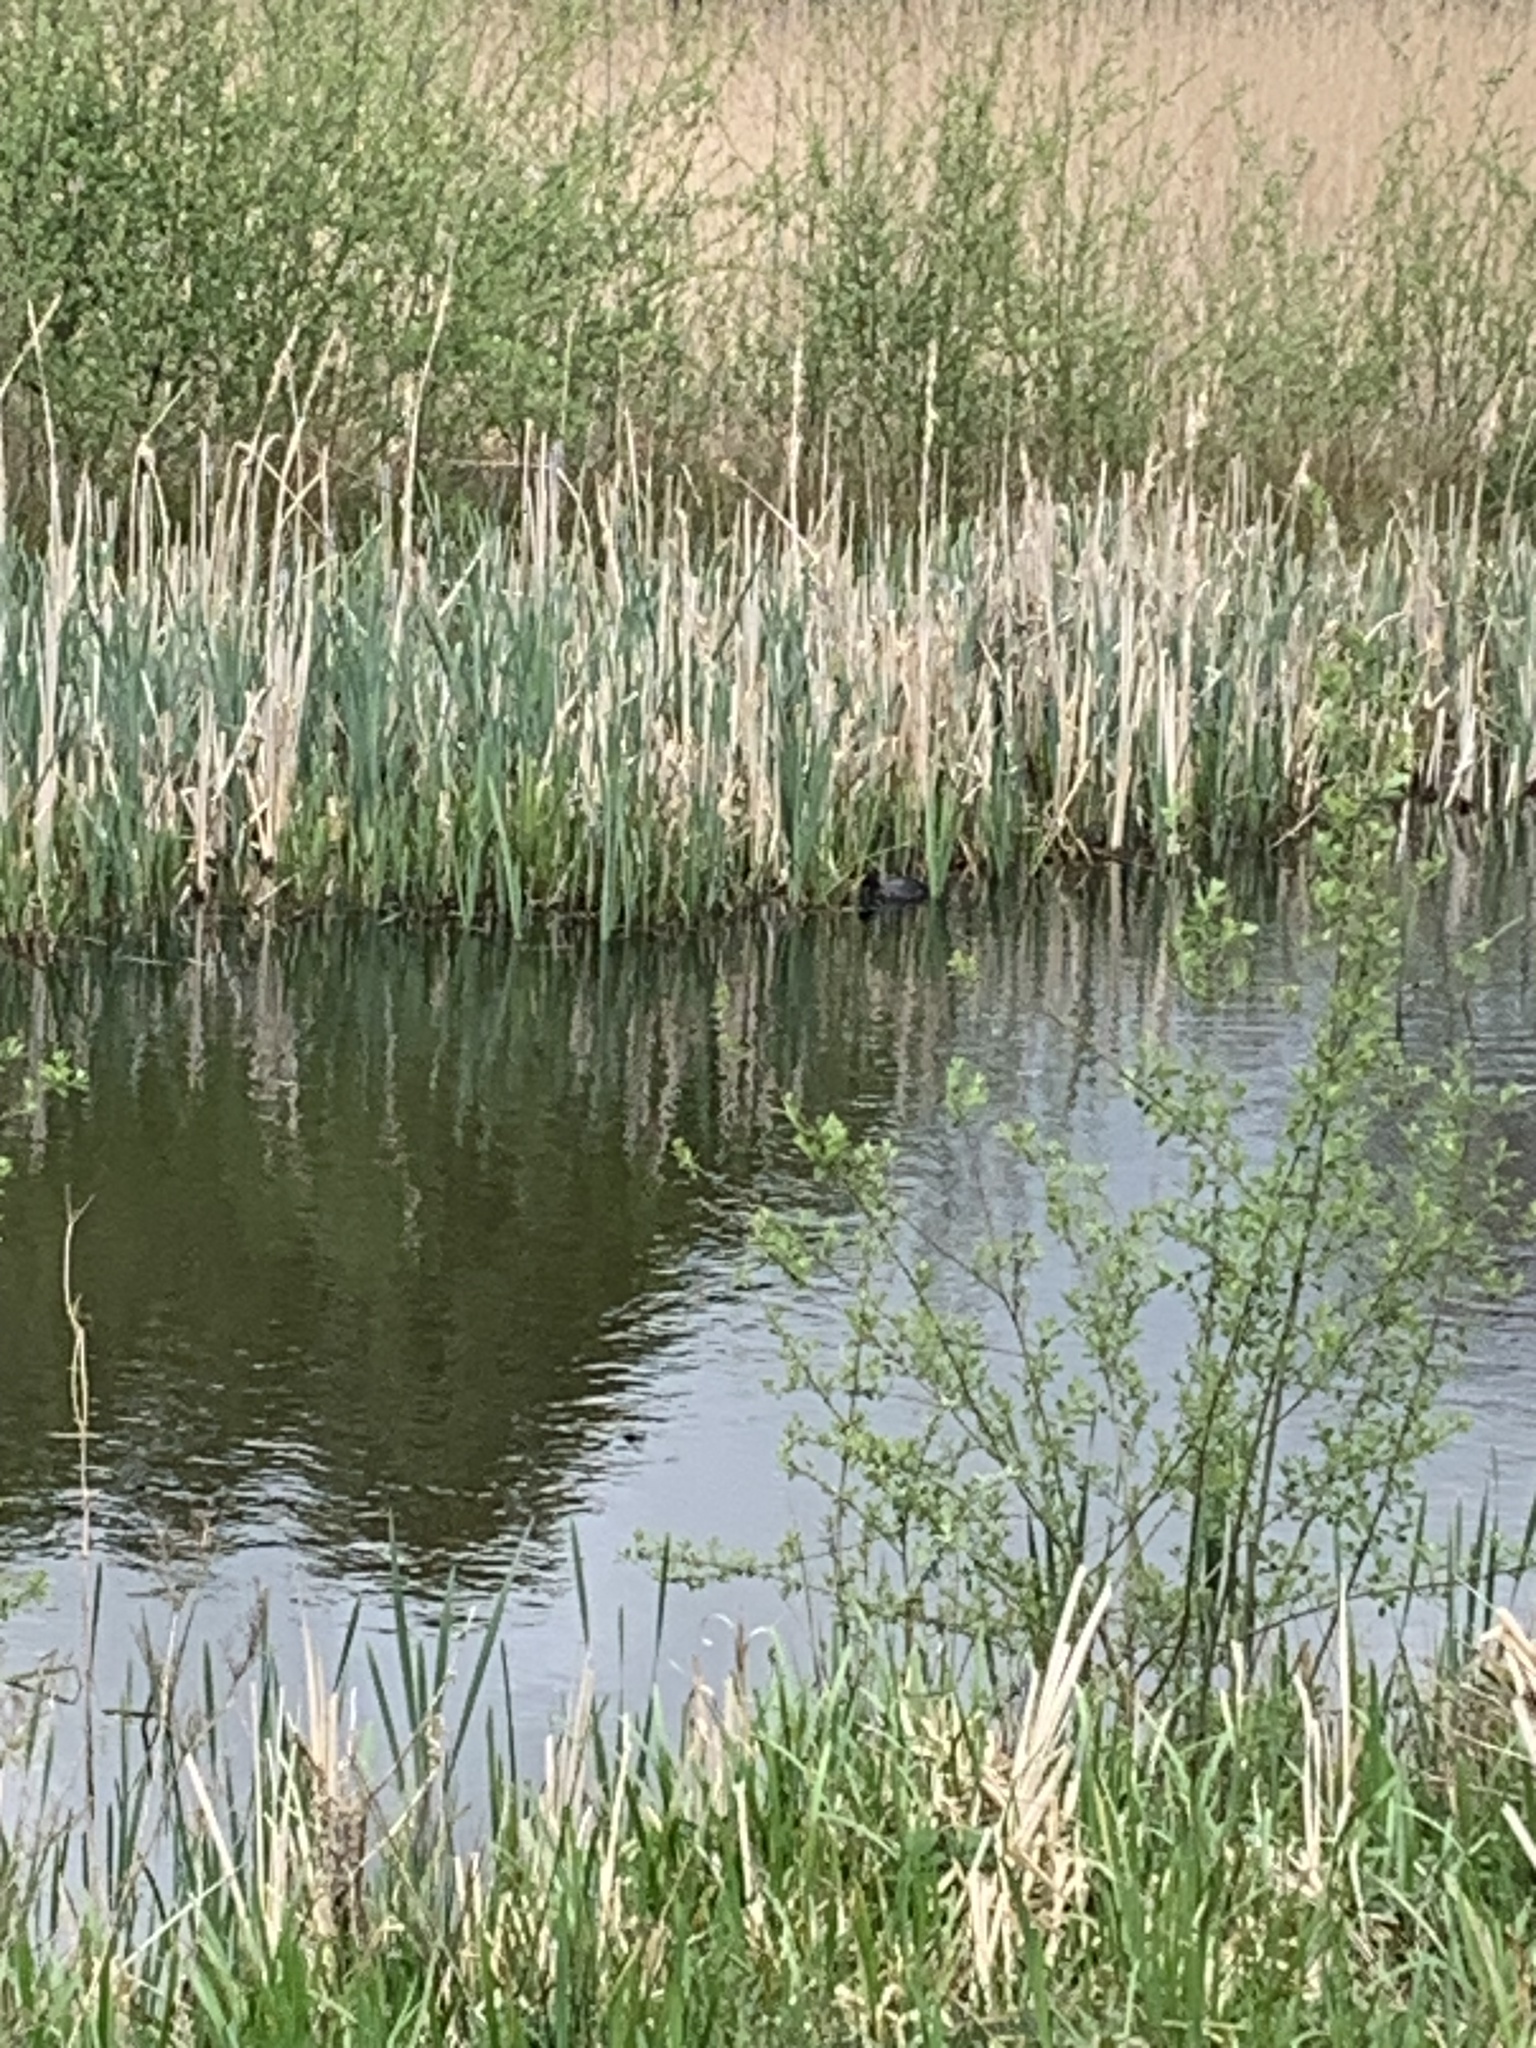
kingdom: Animalia
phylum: Chordata
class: Aves
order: Gruiformes
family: Rallidae
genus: Fulica
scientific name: Fulica atra
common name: Eurasian coot
